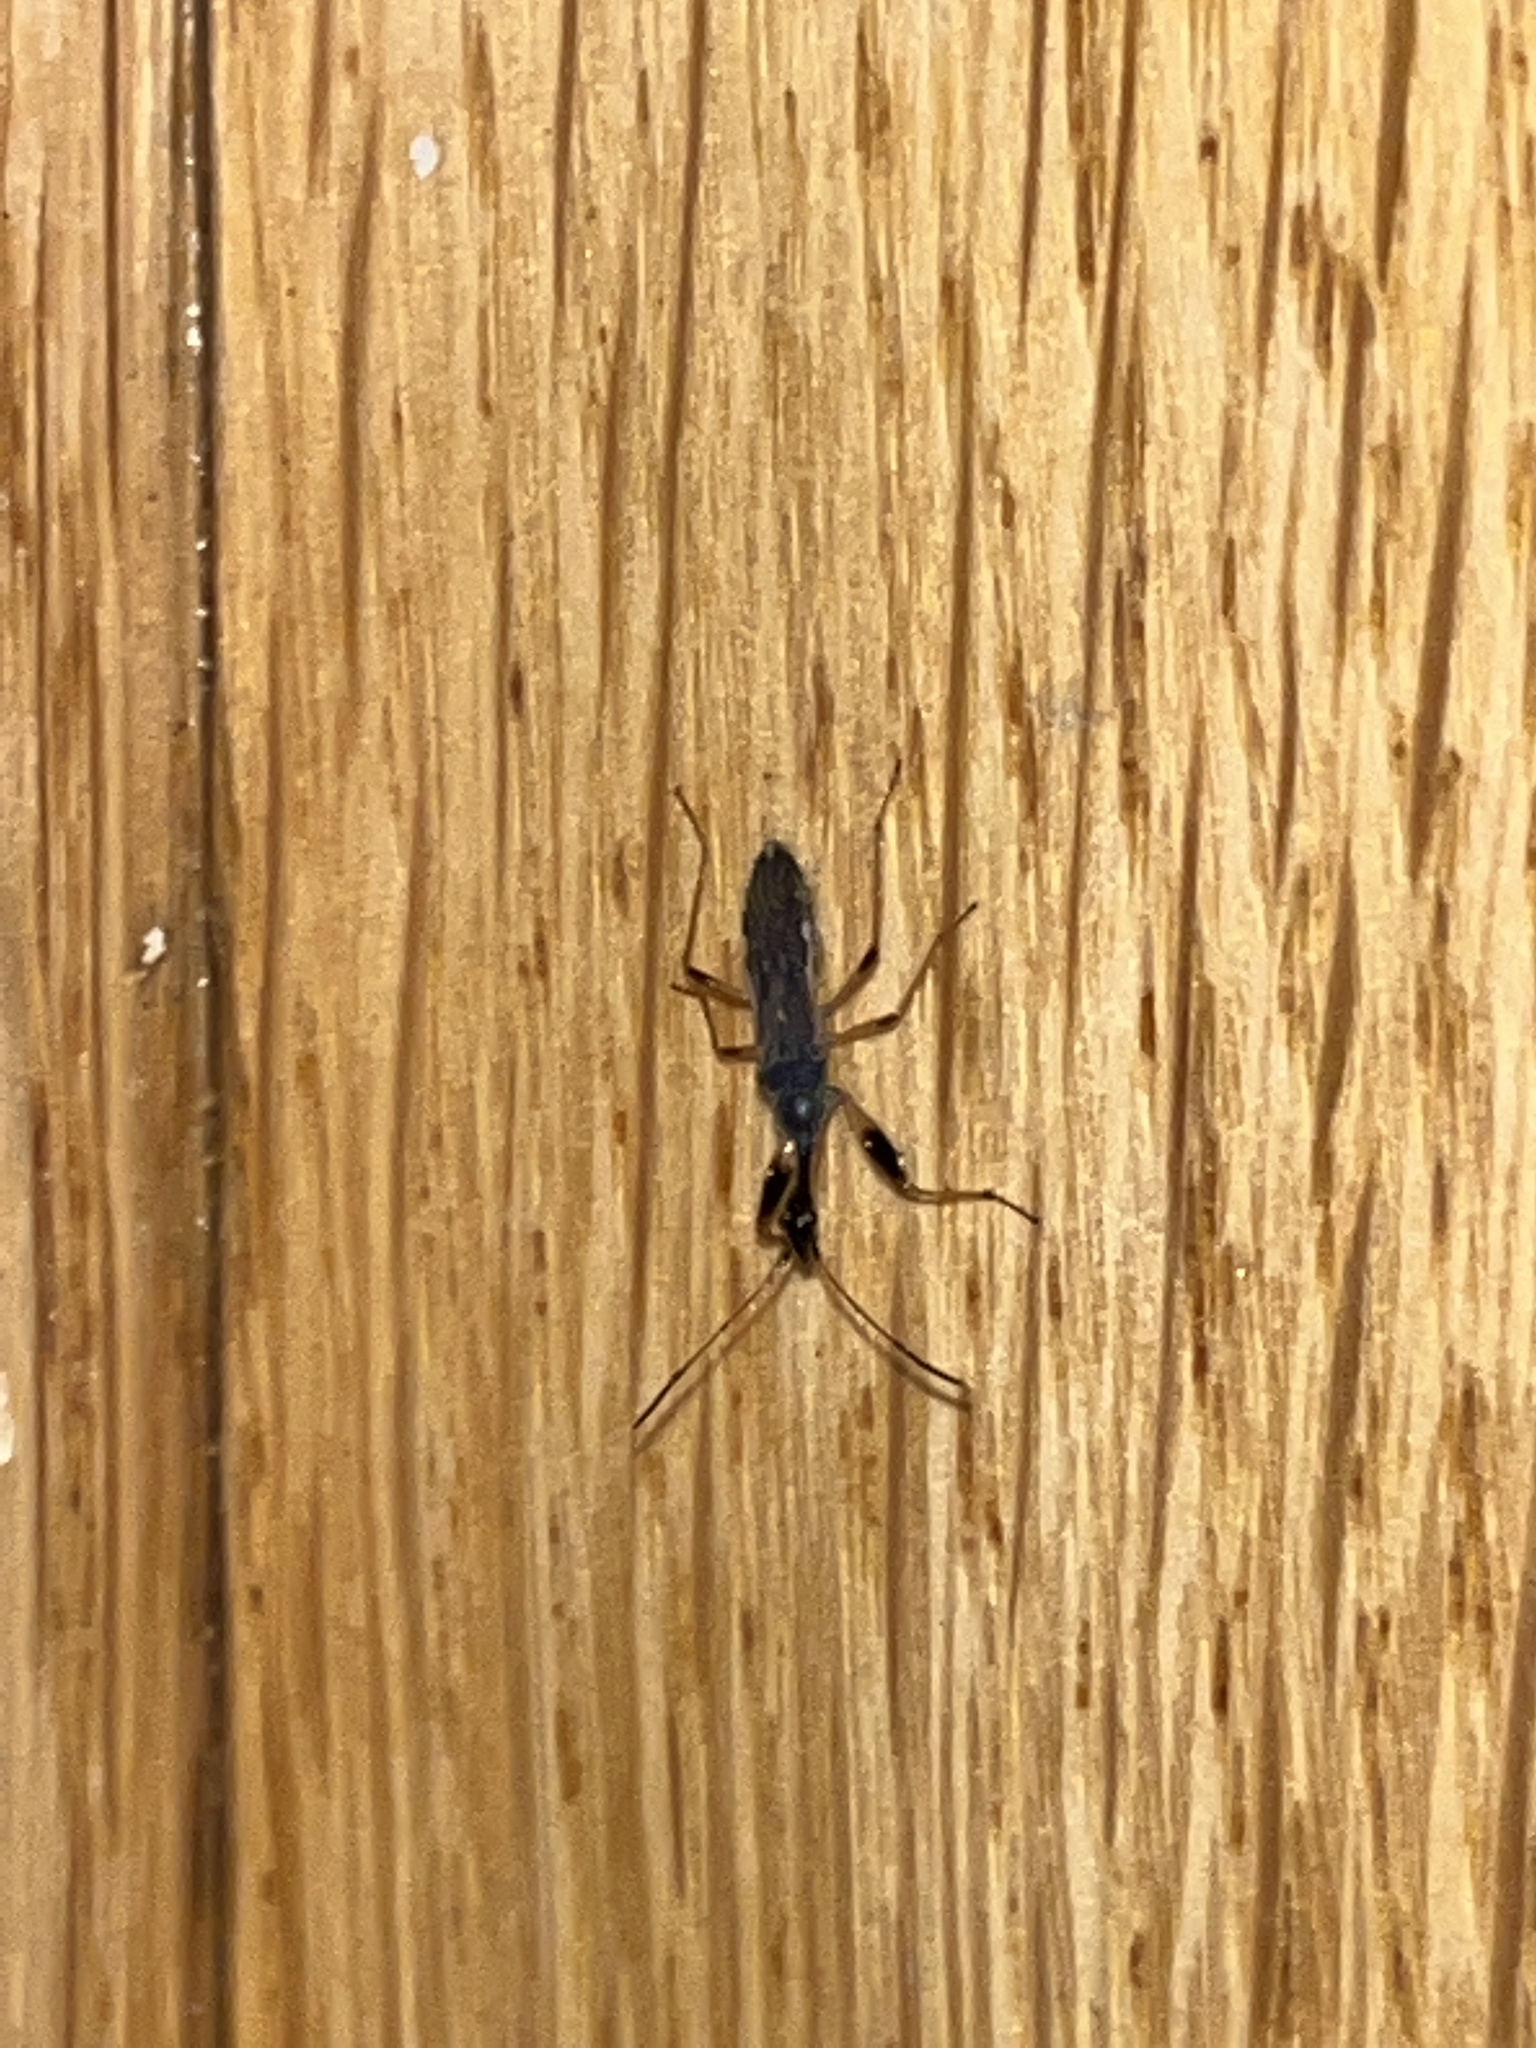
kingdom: Animalia
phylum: Arthropoda
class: Insecta
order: Hemiptera
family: Rhyparochromidae
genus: Myodocha
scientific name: Myodocha serripes
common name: Long-necked seed bug
